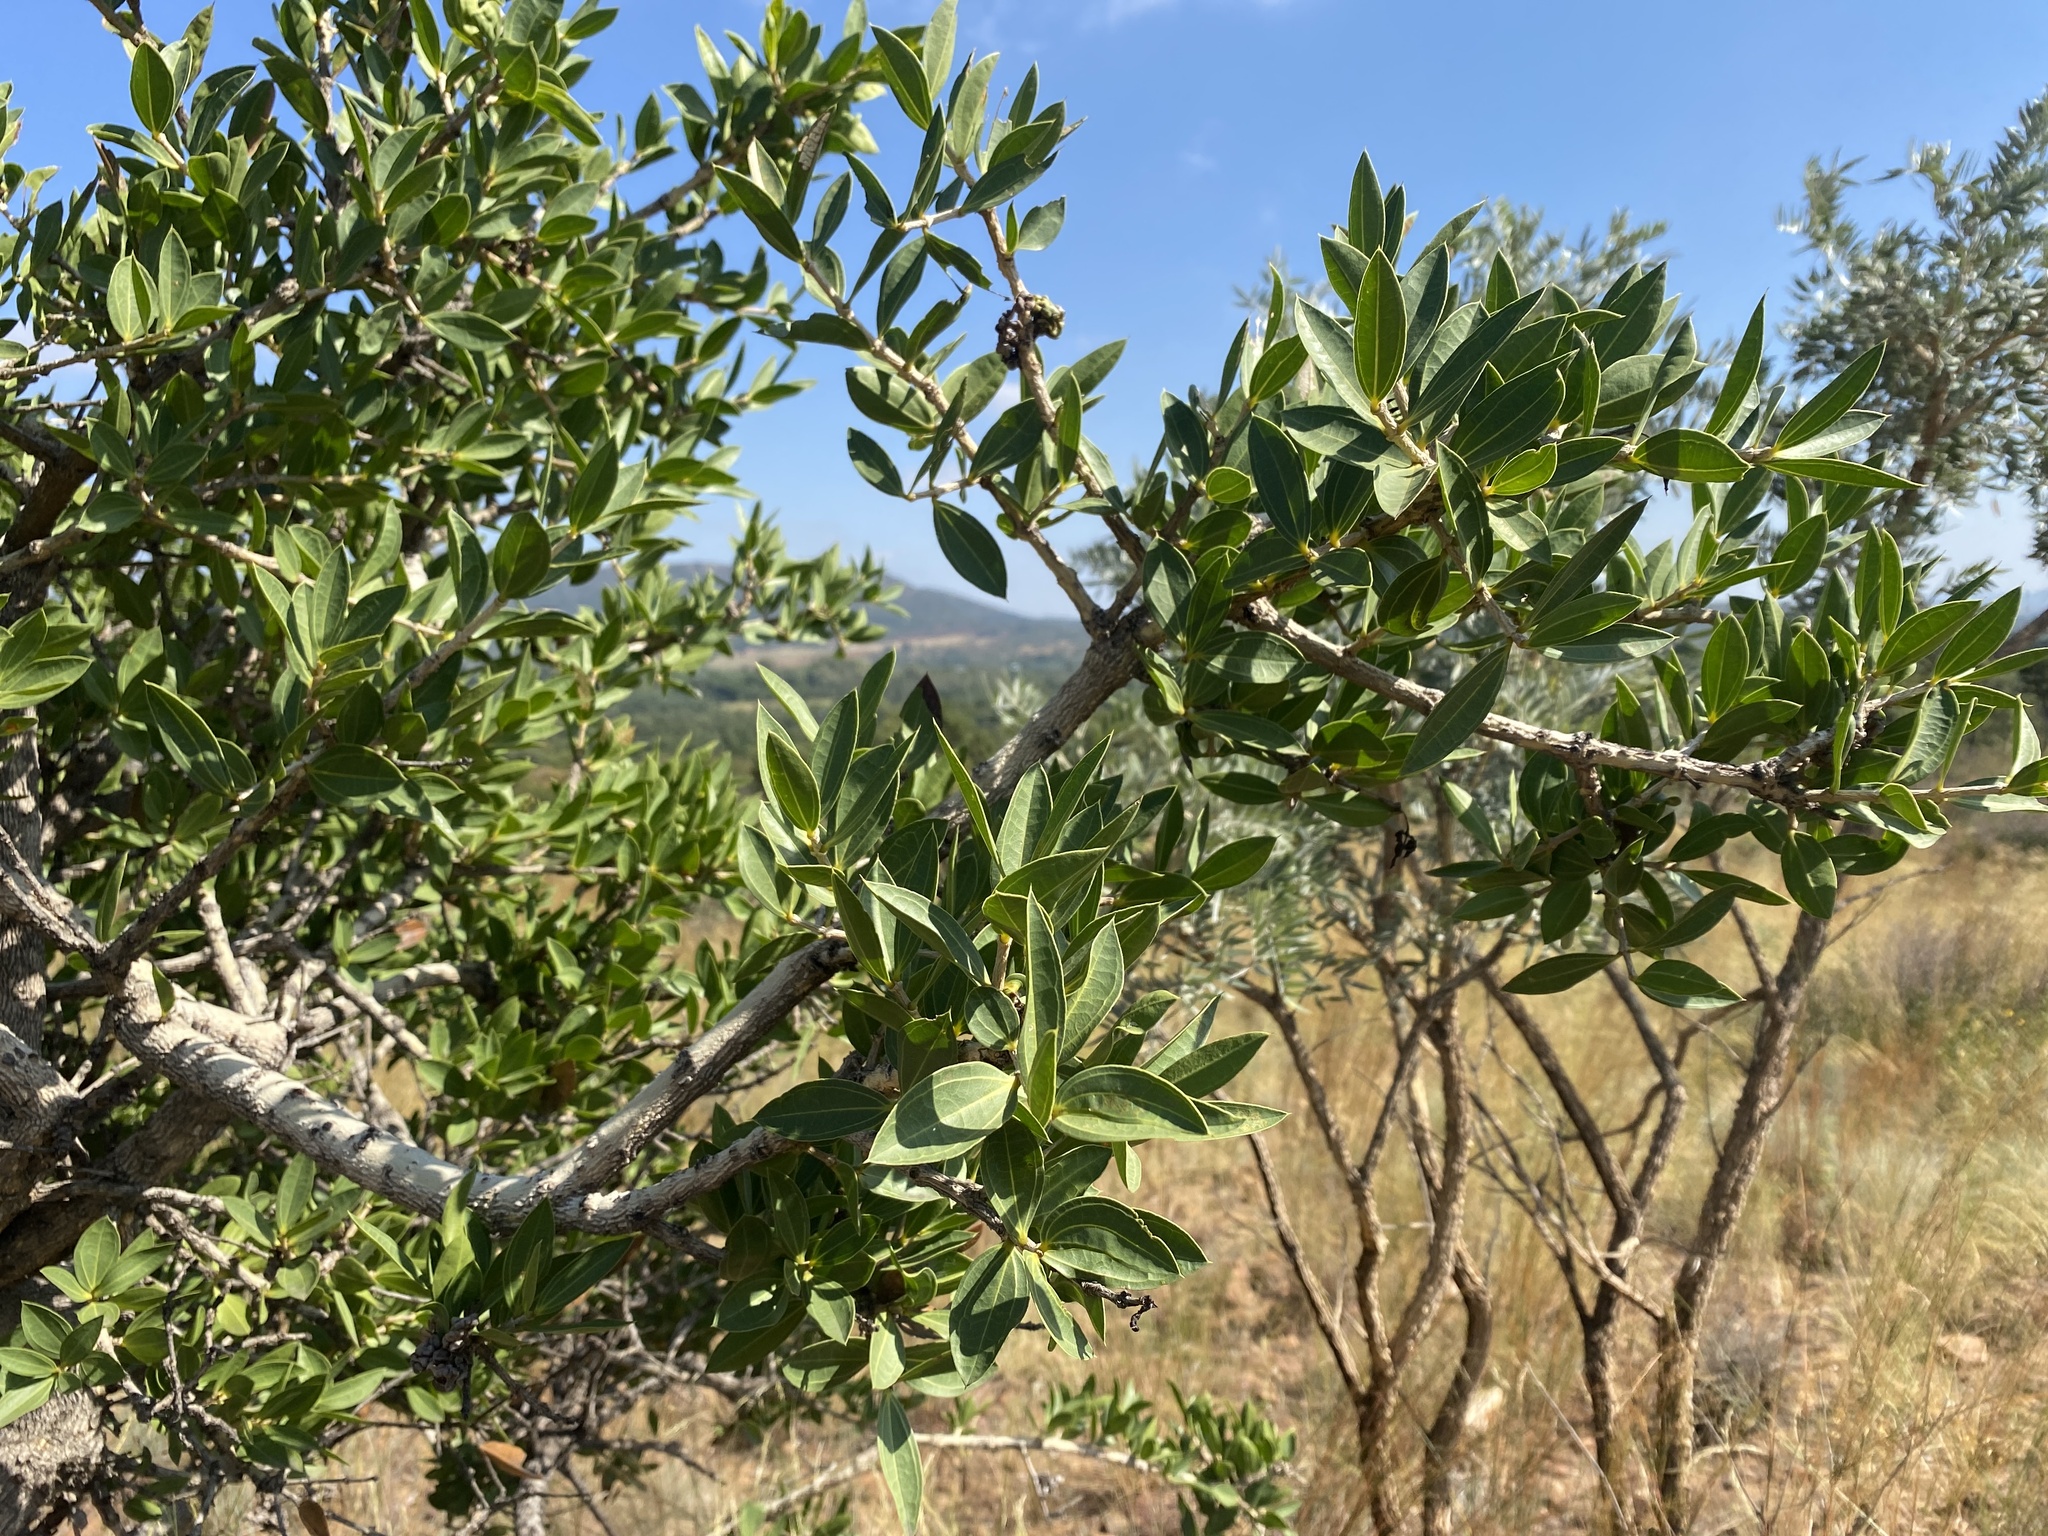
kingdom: Plantae
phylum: Tracheophyta
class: Magnoliopsida
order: Gentianales
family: Loganiaceae
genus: Strychnos
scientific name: Strychnos pungens
